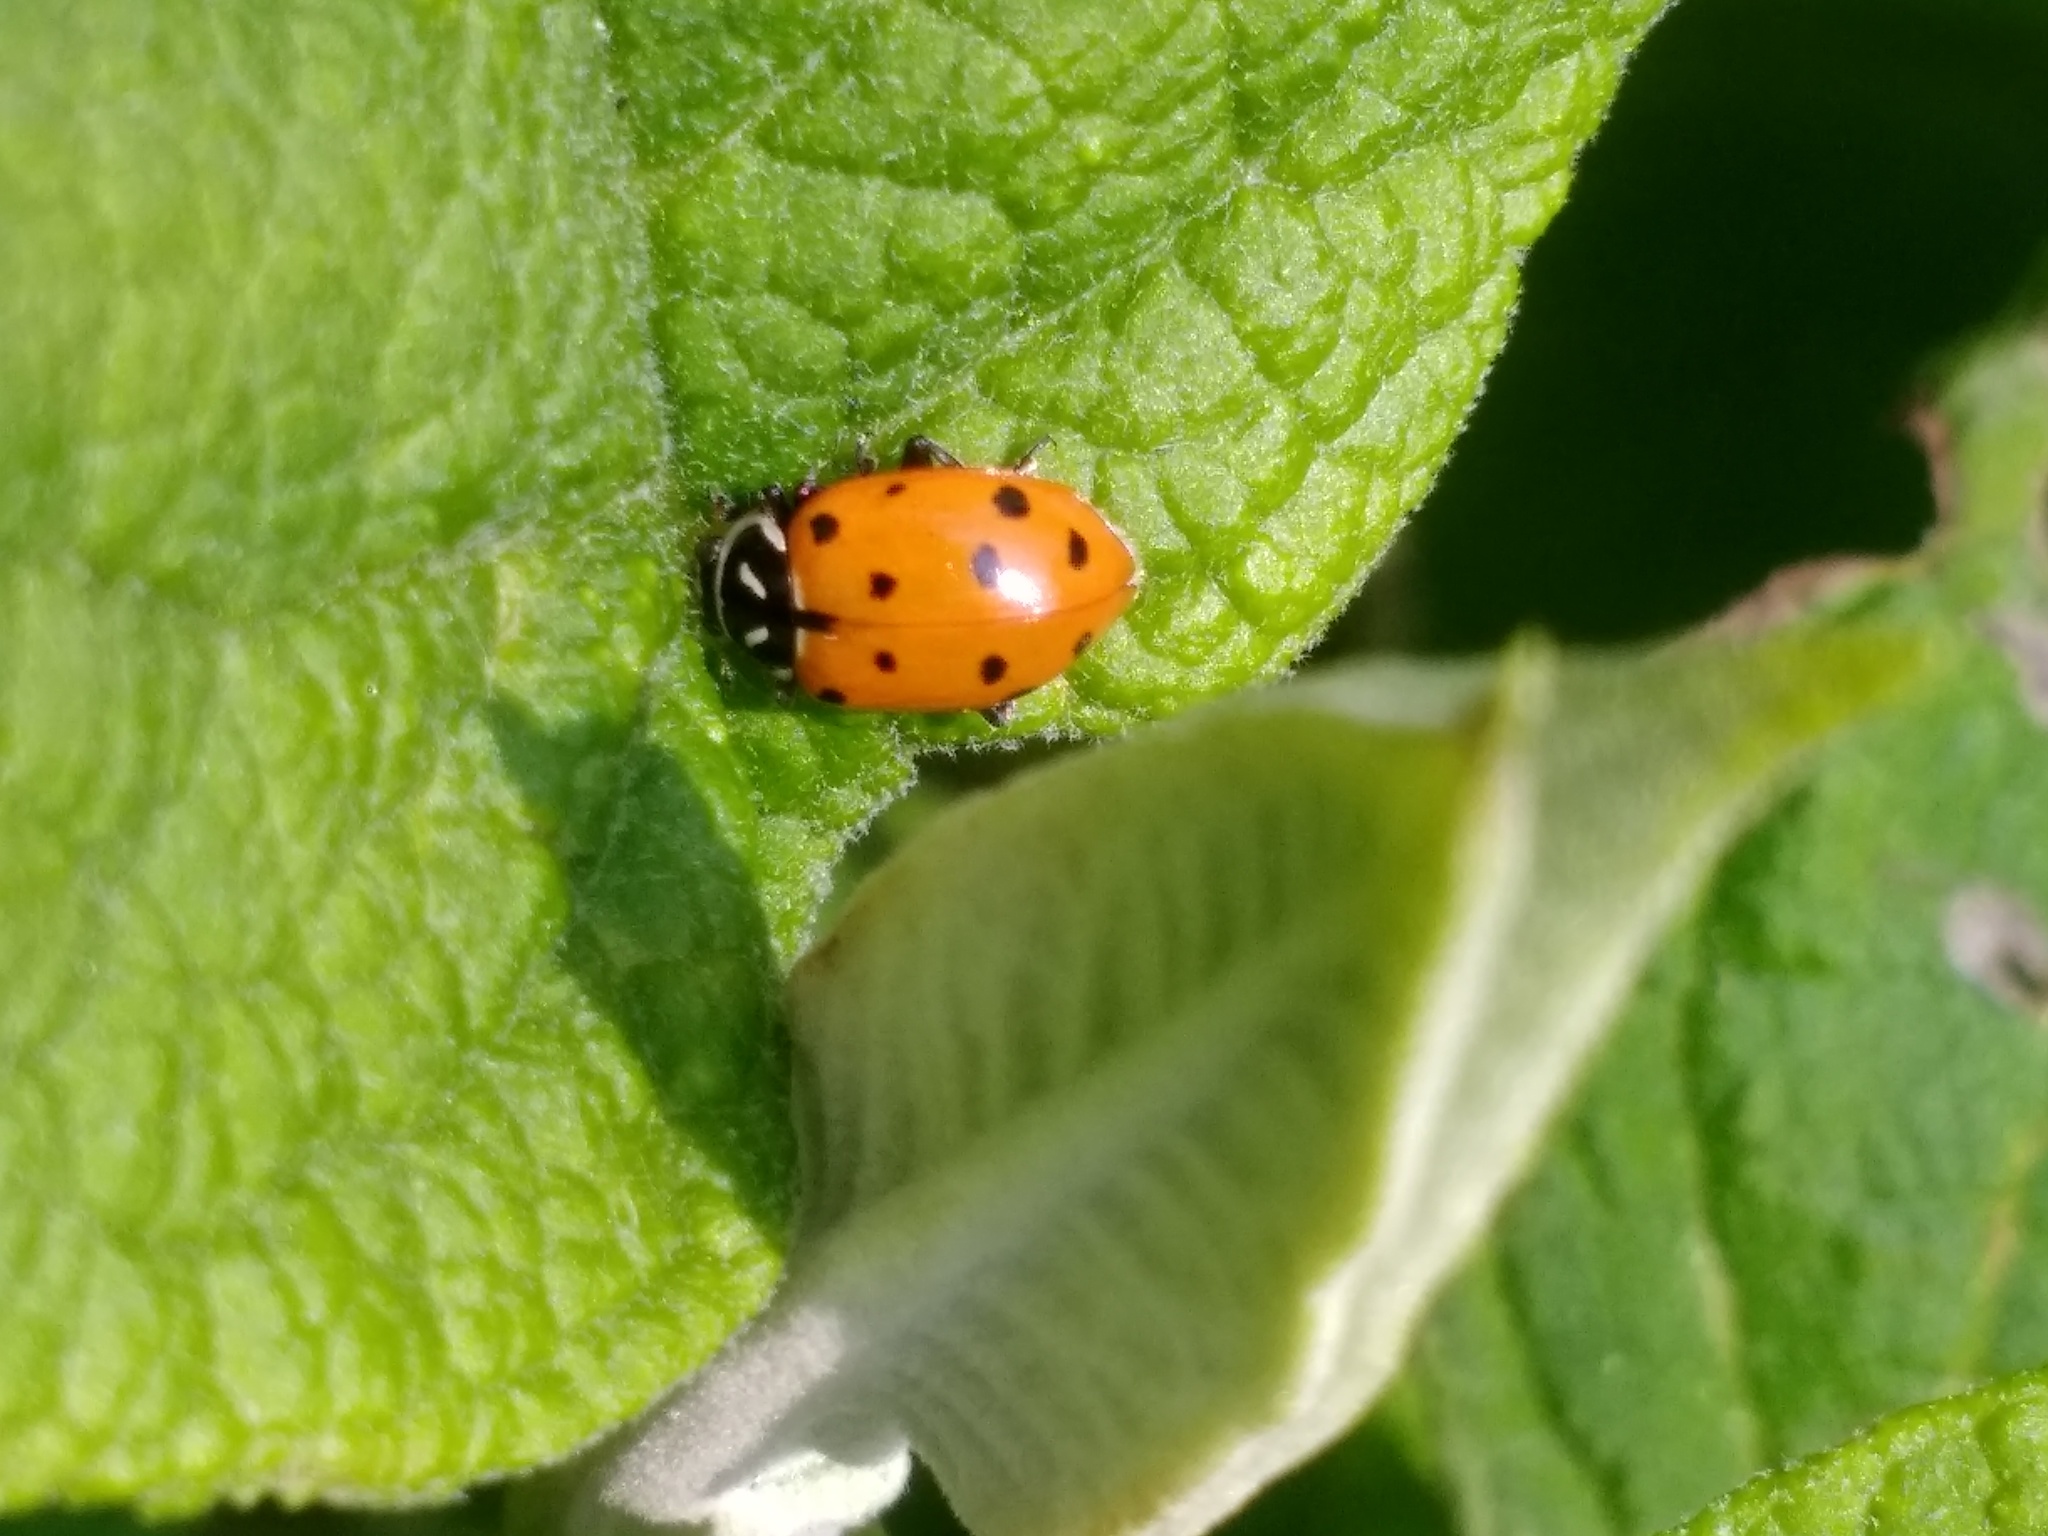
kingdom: Animalia
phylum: Arthropoda
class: Insecta
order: Coleoptera
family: Coccinellidae
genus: Hippodamia
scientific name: Hippodamia convergens
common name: Convergent lady beetle
